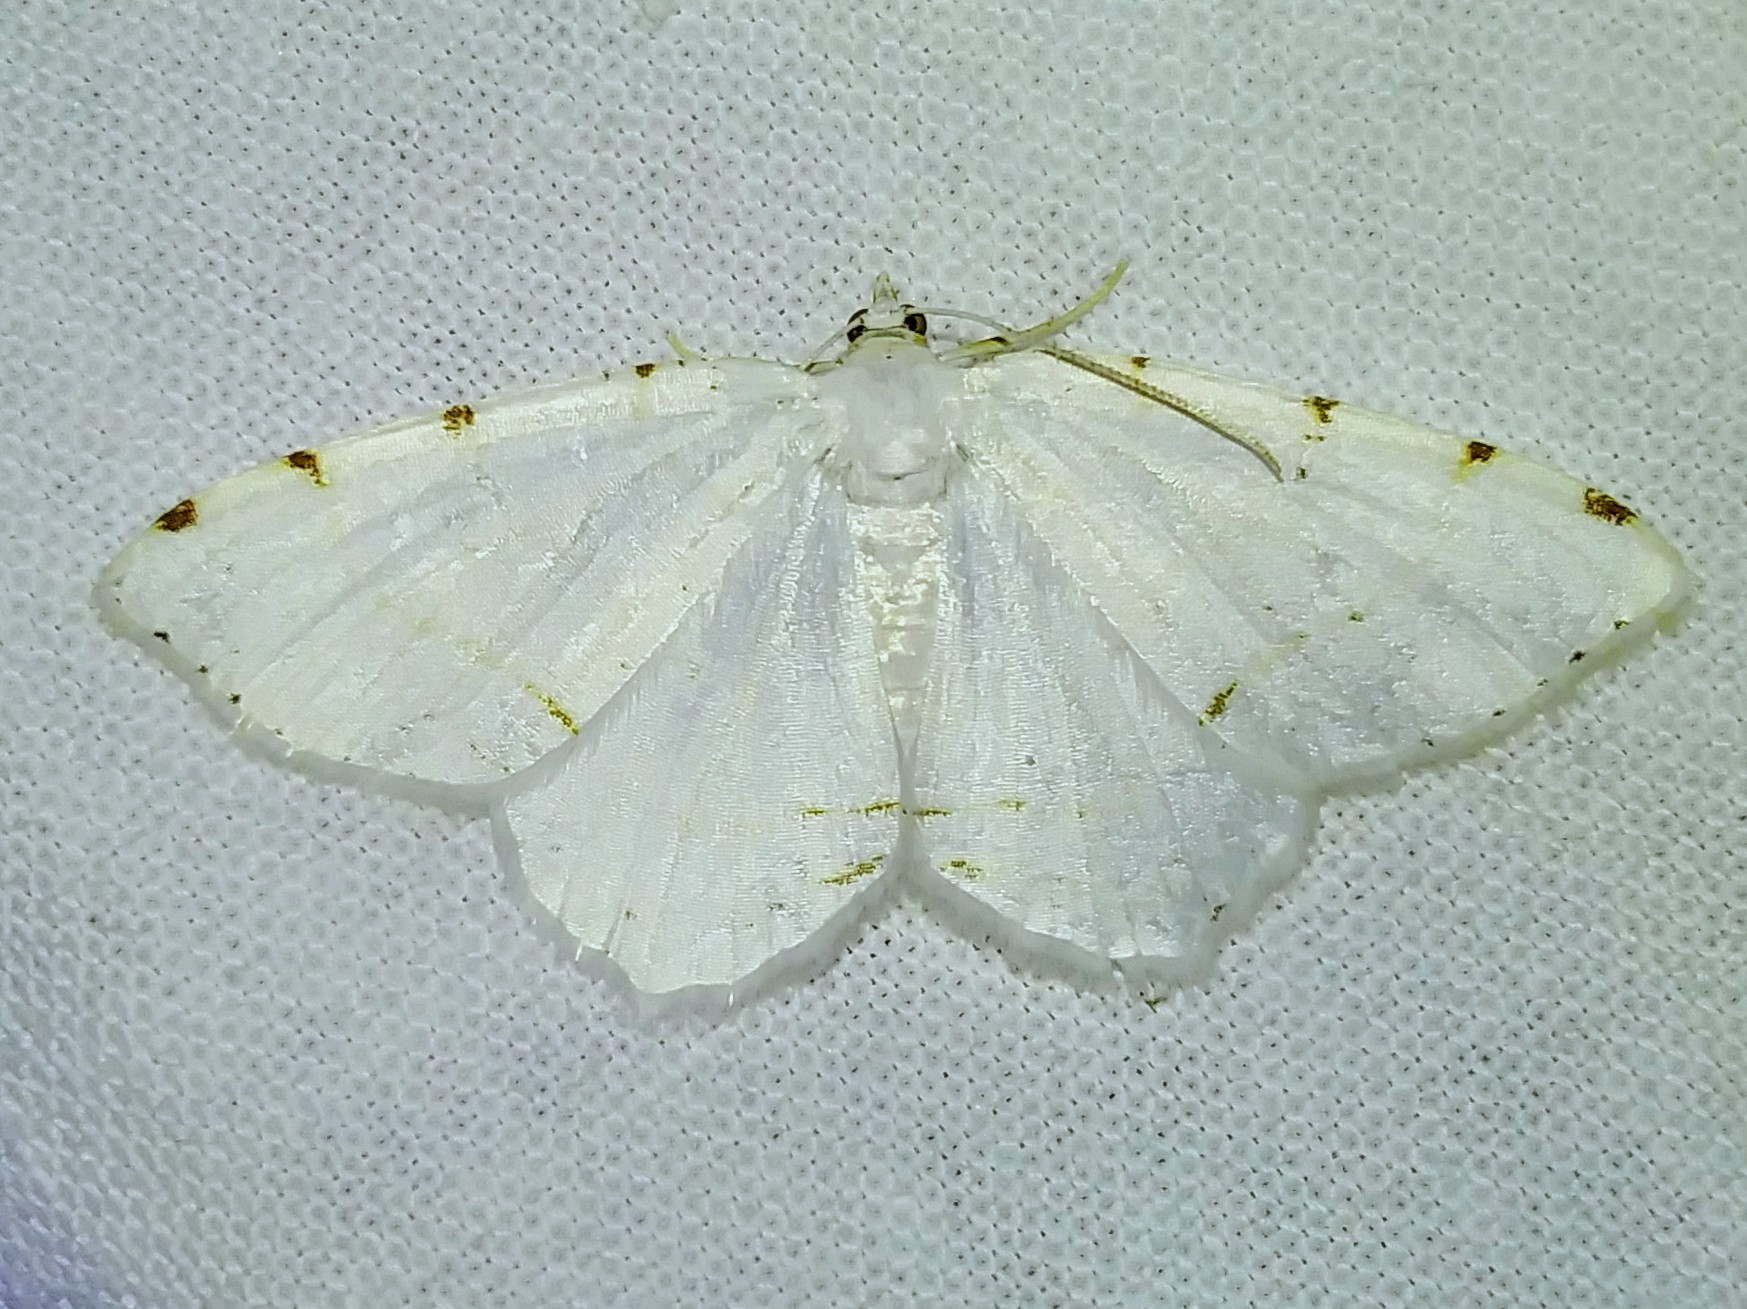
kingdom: Animalia
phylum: Arthropoda
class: Insecta
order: Lepidoptera
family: Geometridae
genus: Macaria
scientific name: Macaria pustularia
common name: Lesser maple spanworm moth
